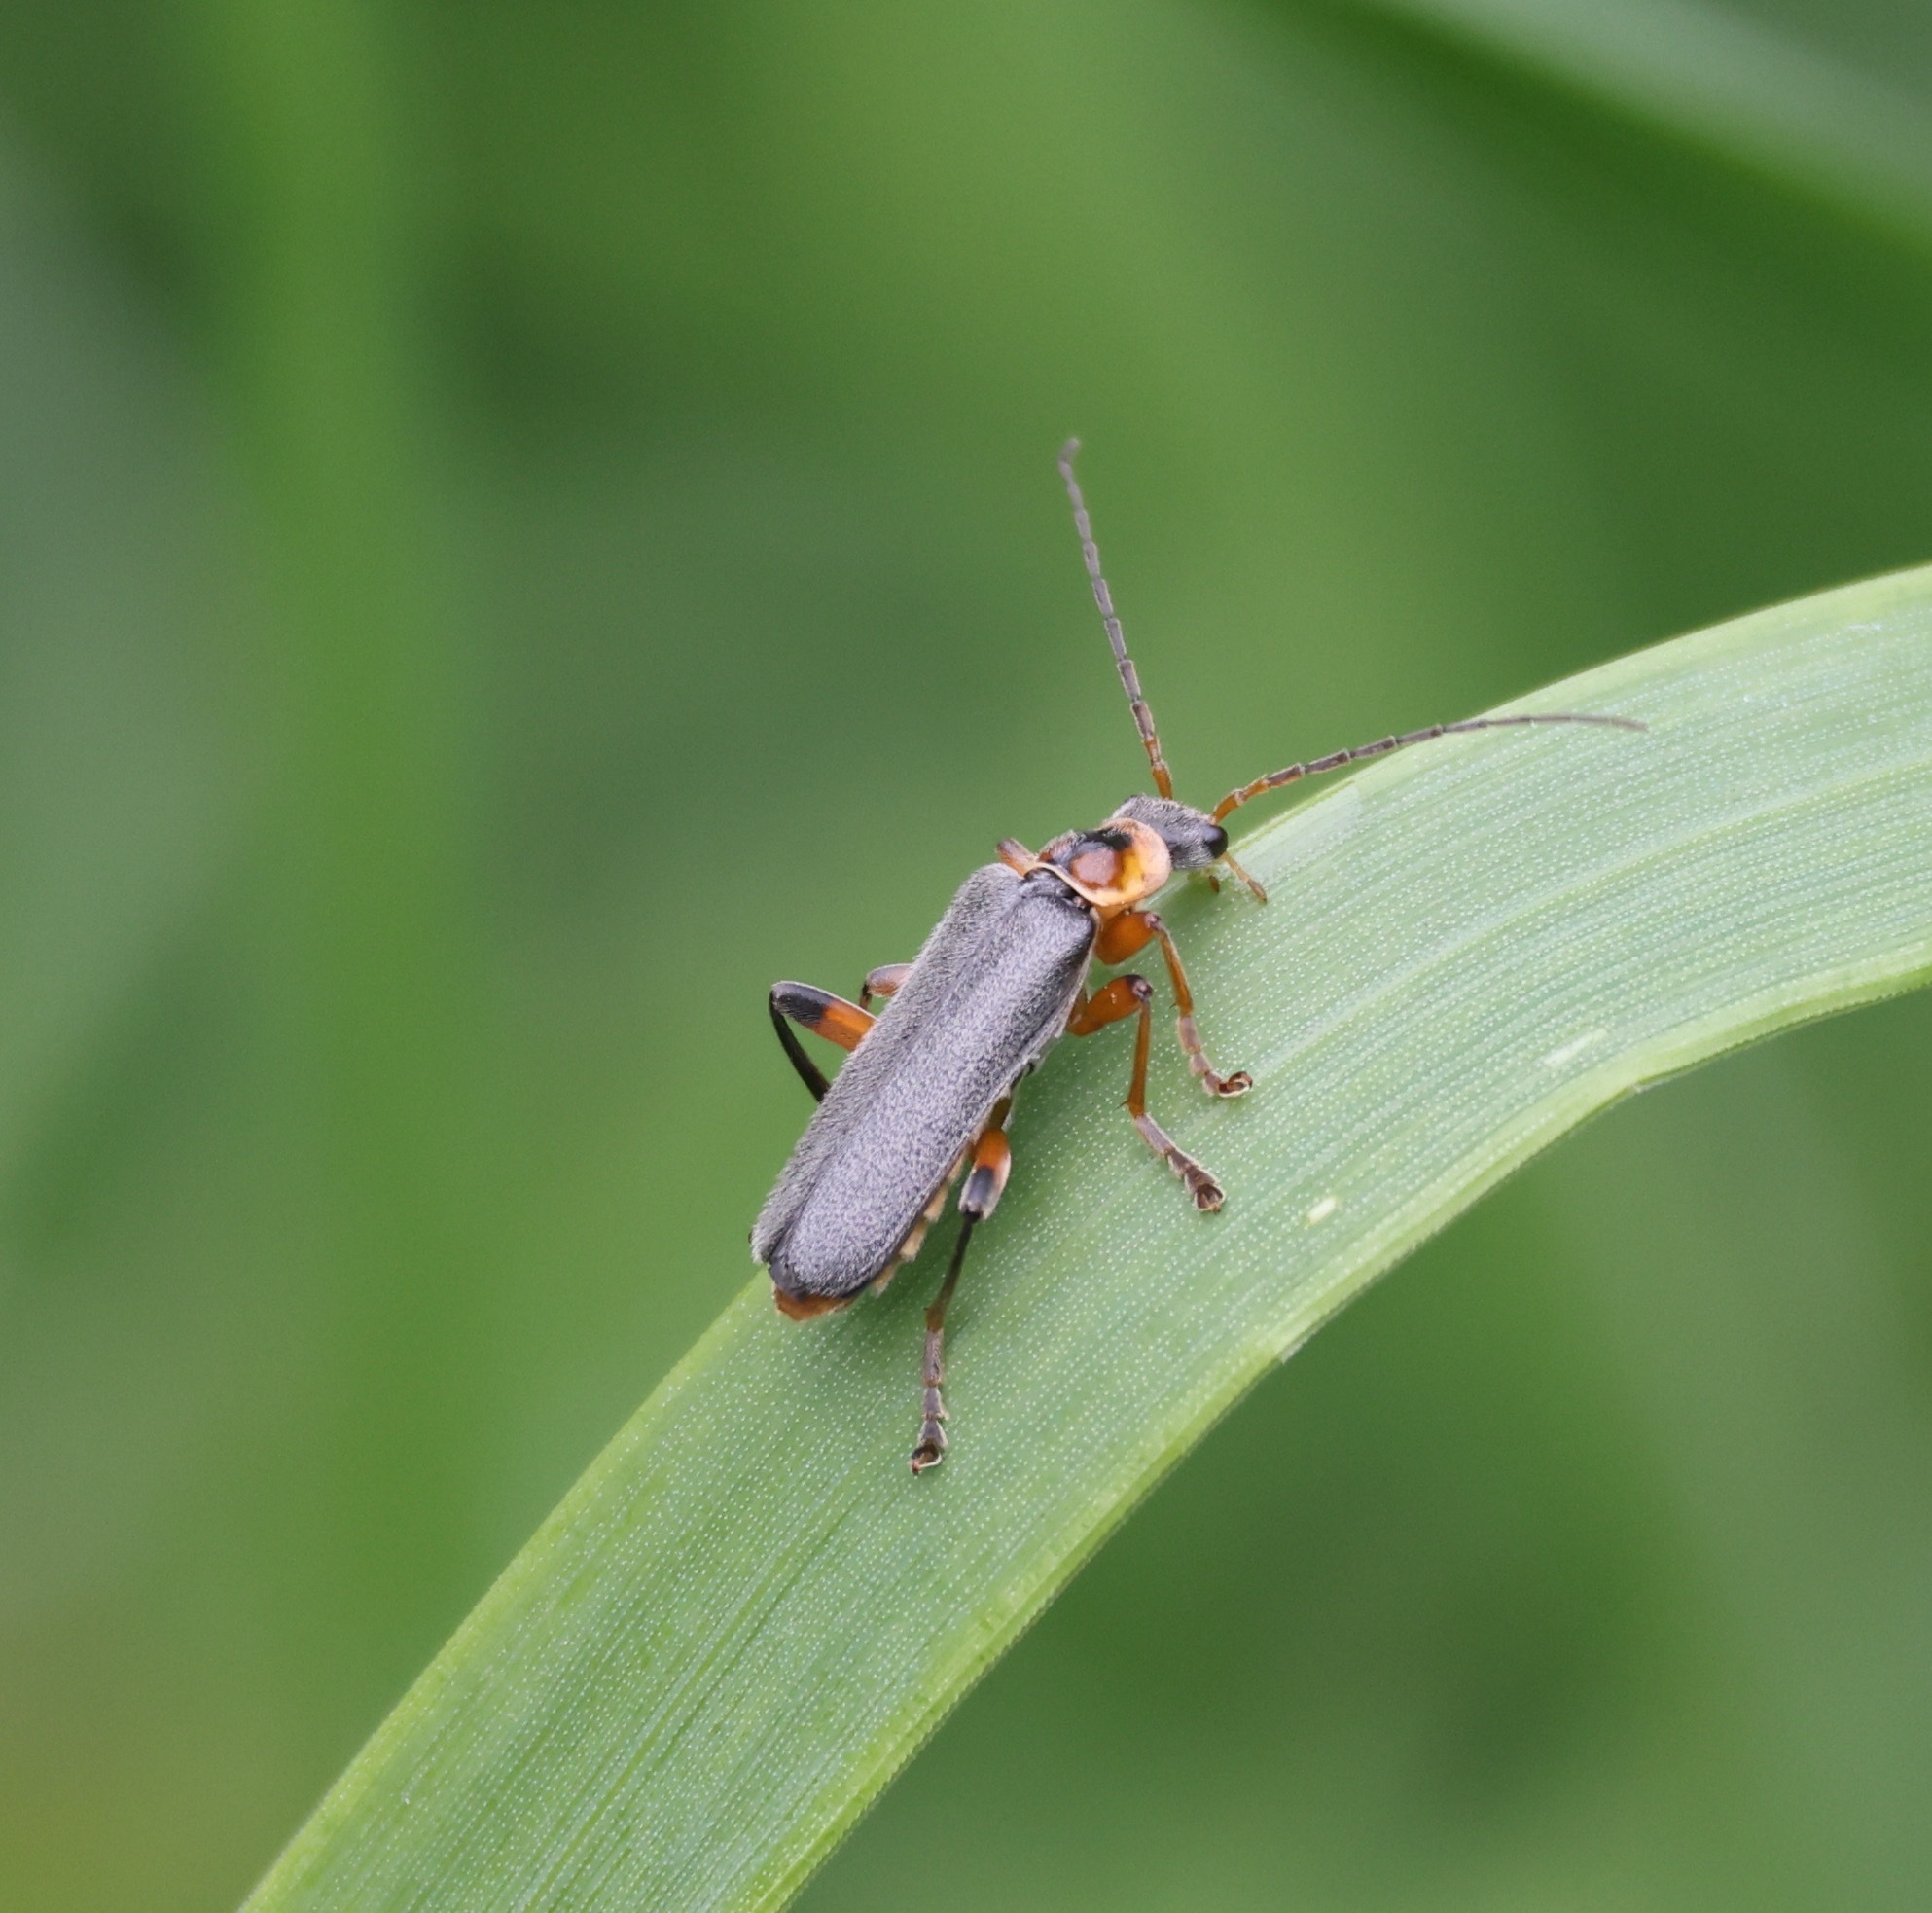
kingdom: Animalia
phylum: Arthropoda
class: Insecta
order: Coleoptera
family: Cantharidae
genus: Cantharis
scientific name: Cantharis nigricans
